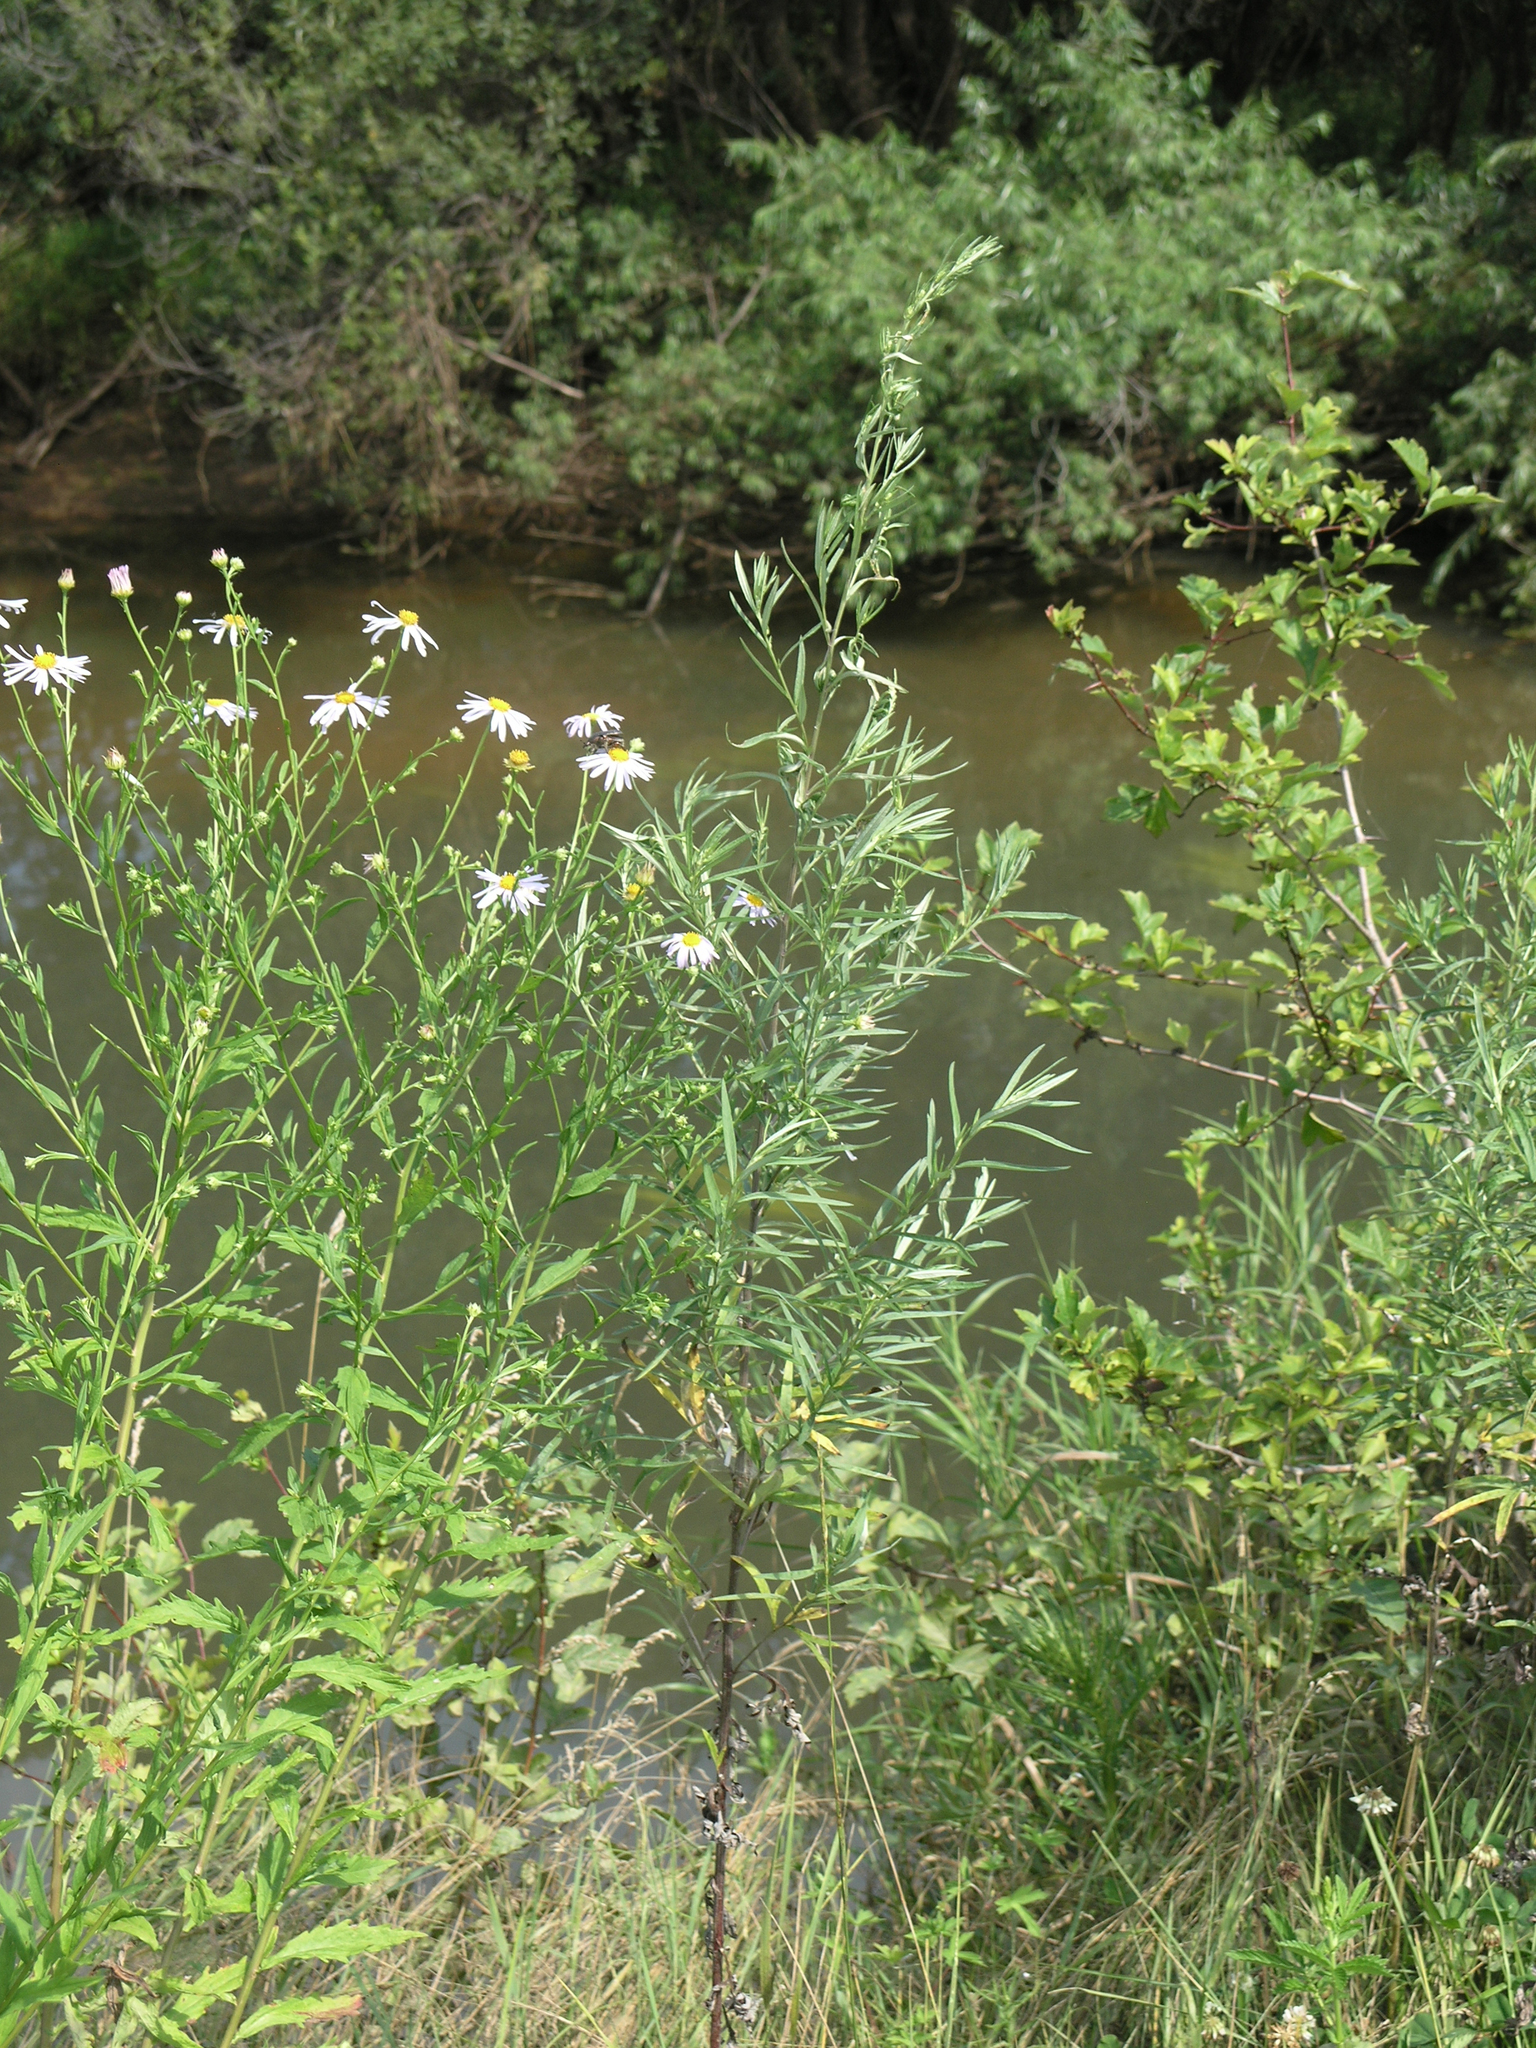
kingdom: Plantae
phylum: Tracheophyta
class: Magnoliopsida
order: Asterales
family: Asteraceae
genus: Kalimeris
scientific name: Kalimeris incisa
